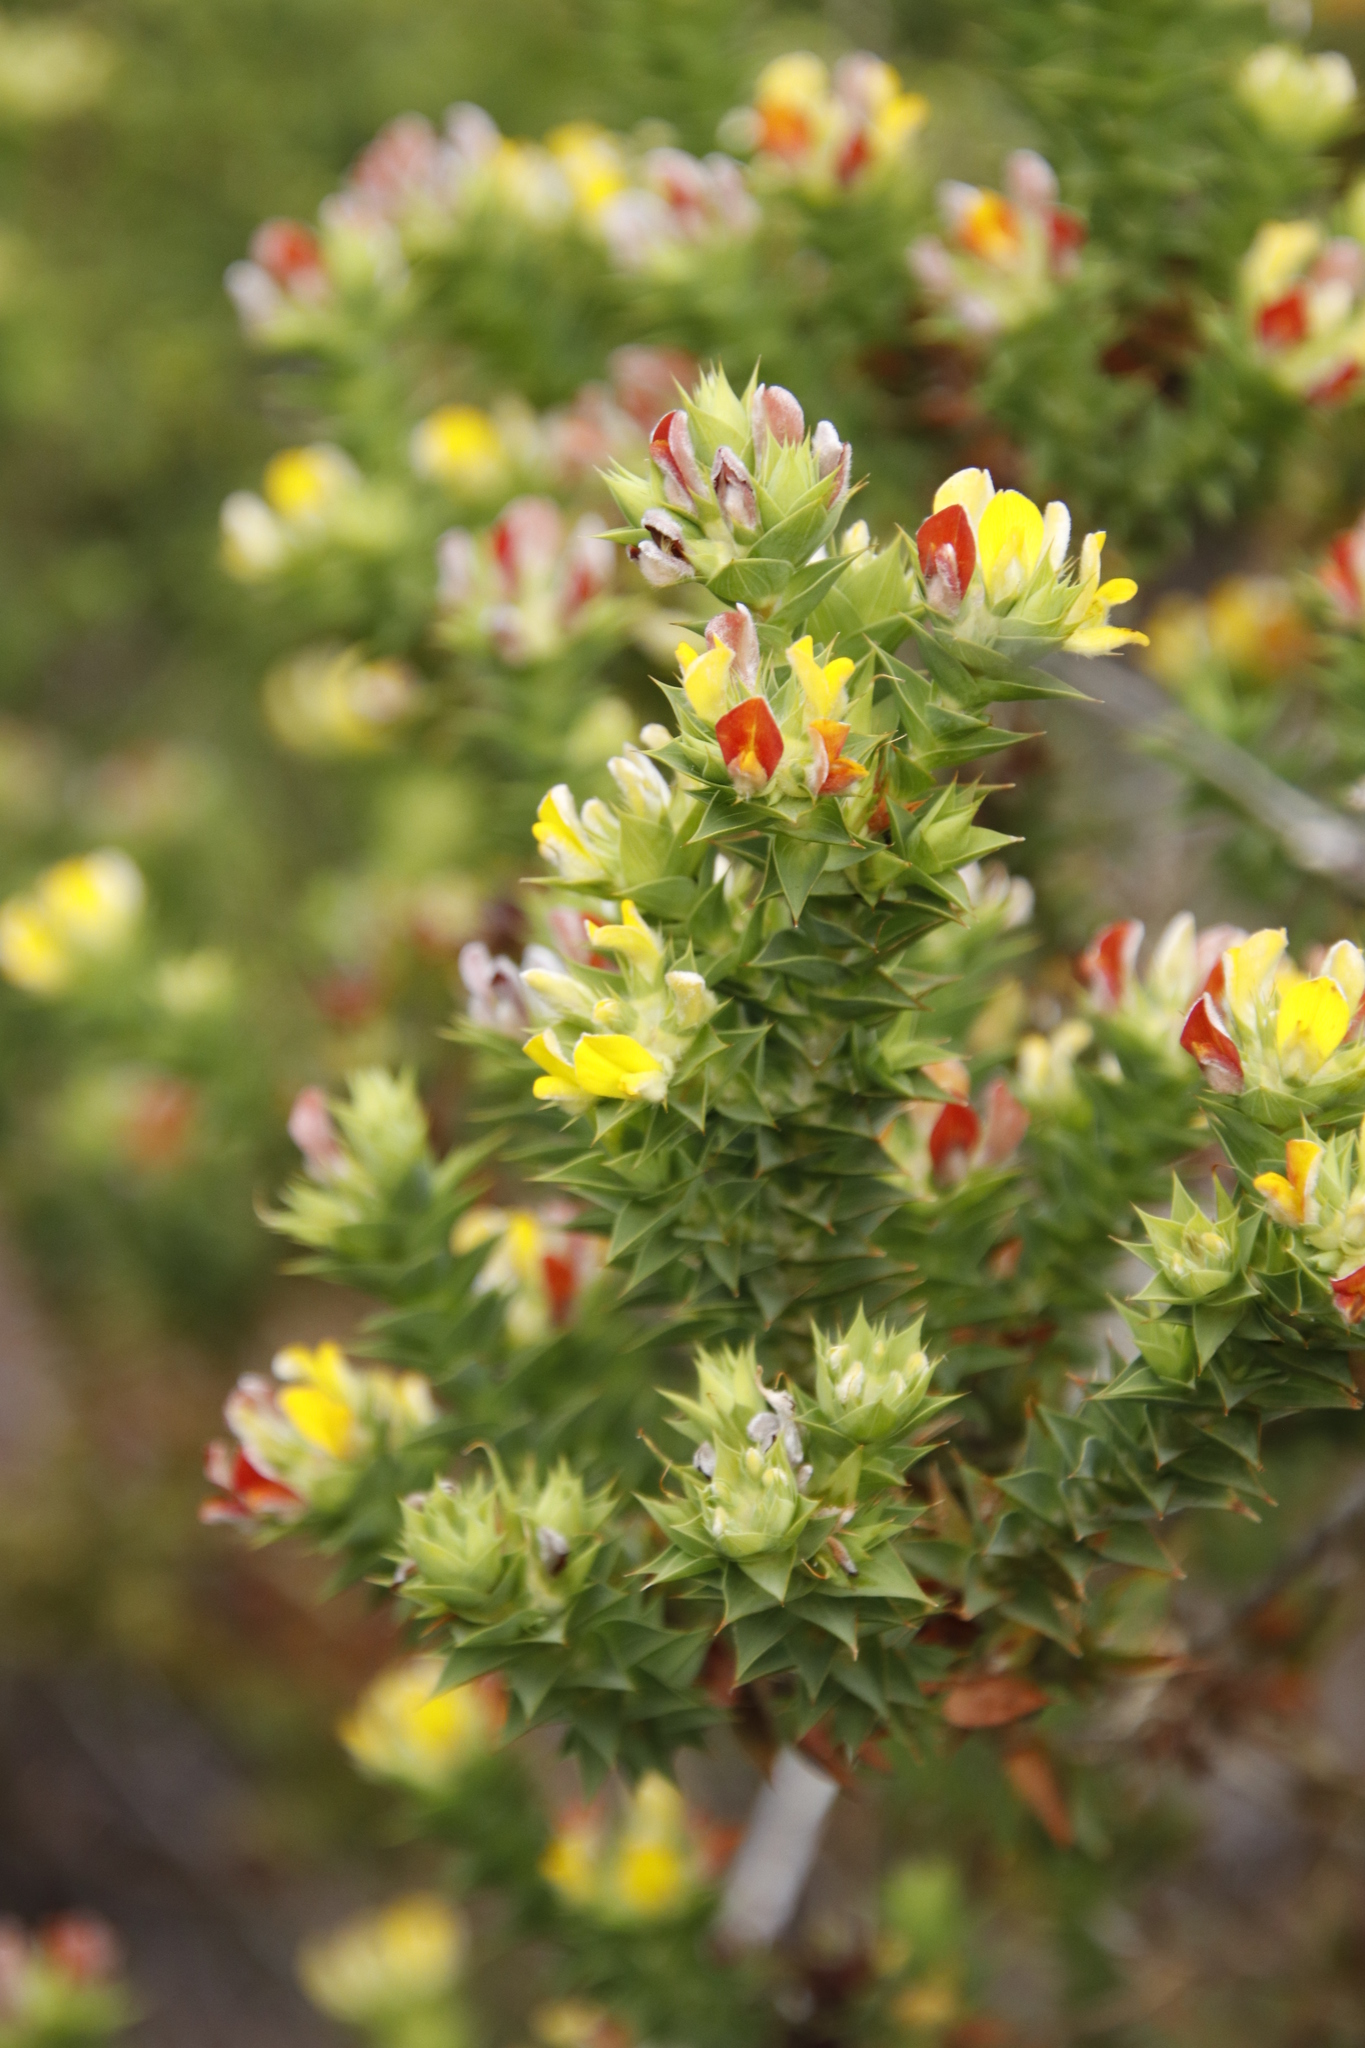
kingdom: Plantae
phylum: Tracheophyta
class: Magnoliopsida
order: Fabales
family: Fabaceae
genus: Aspalathus
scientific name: Aspalathus cordata
